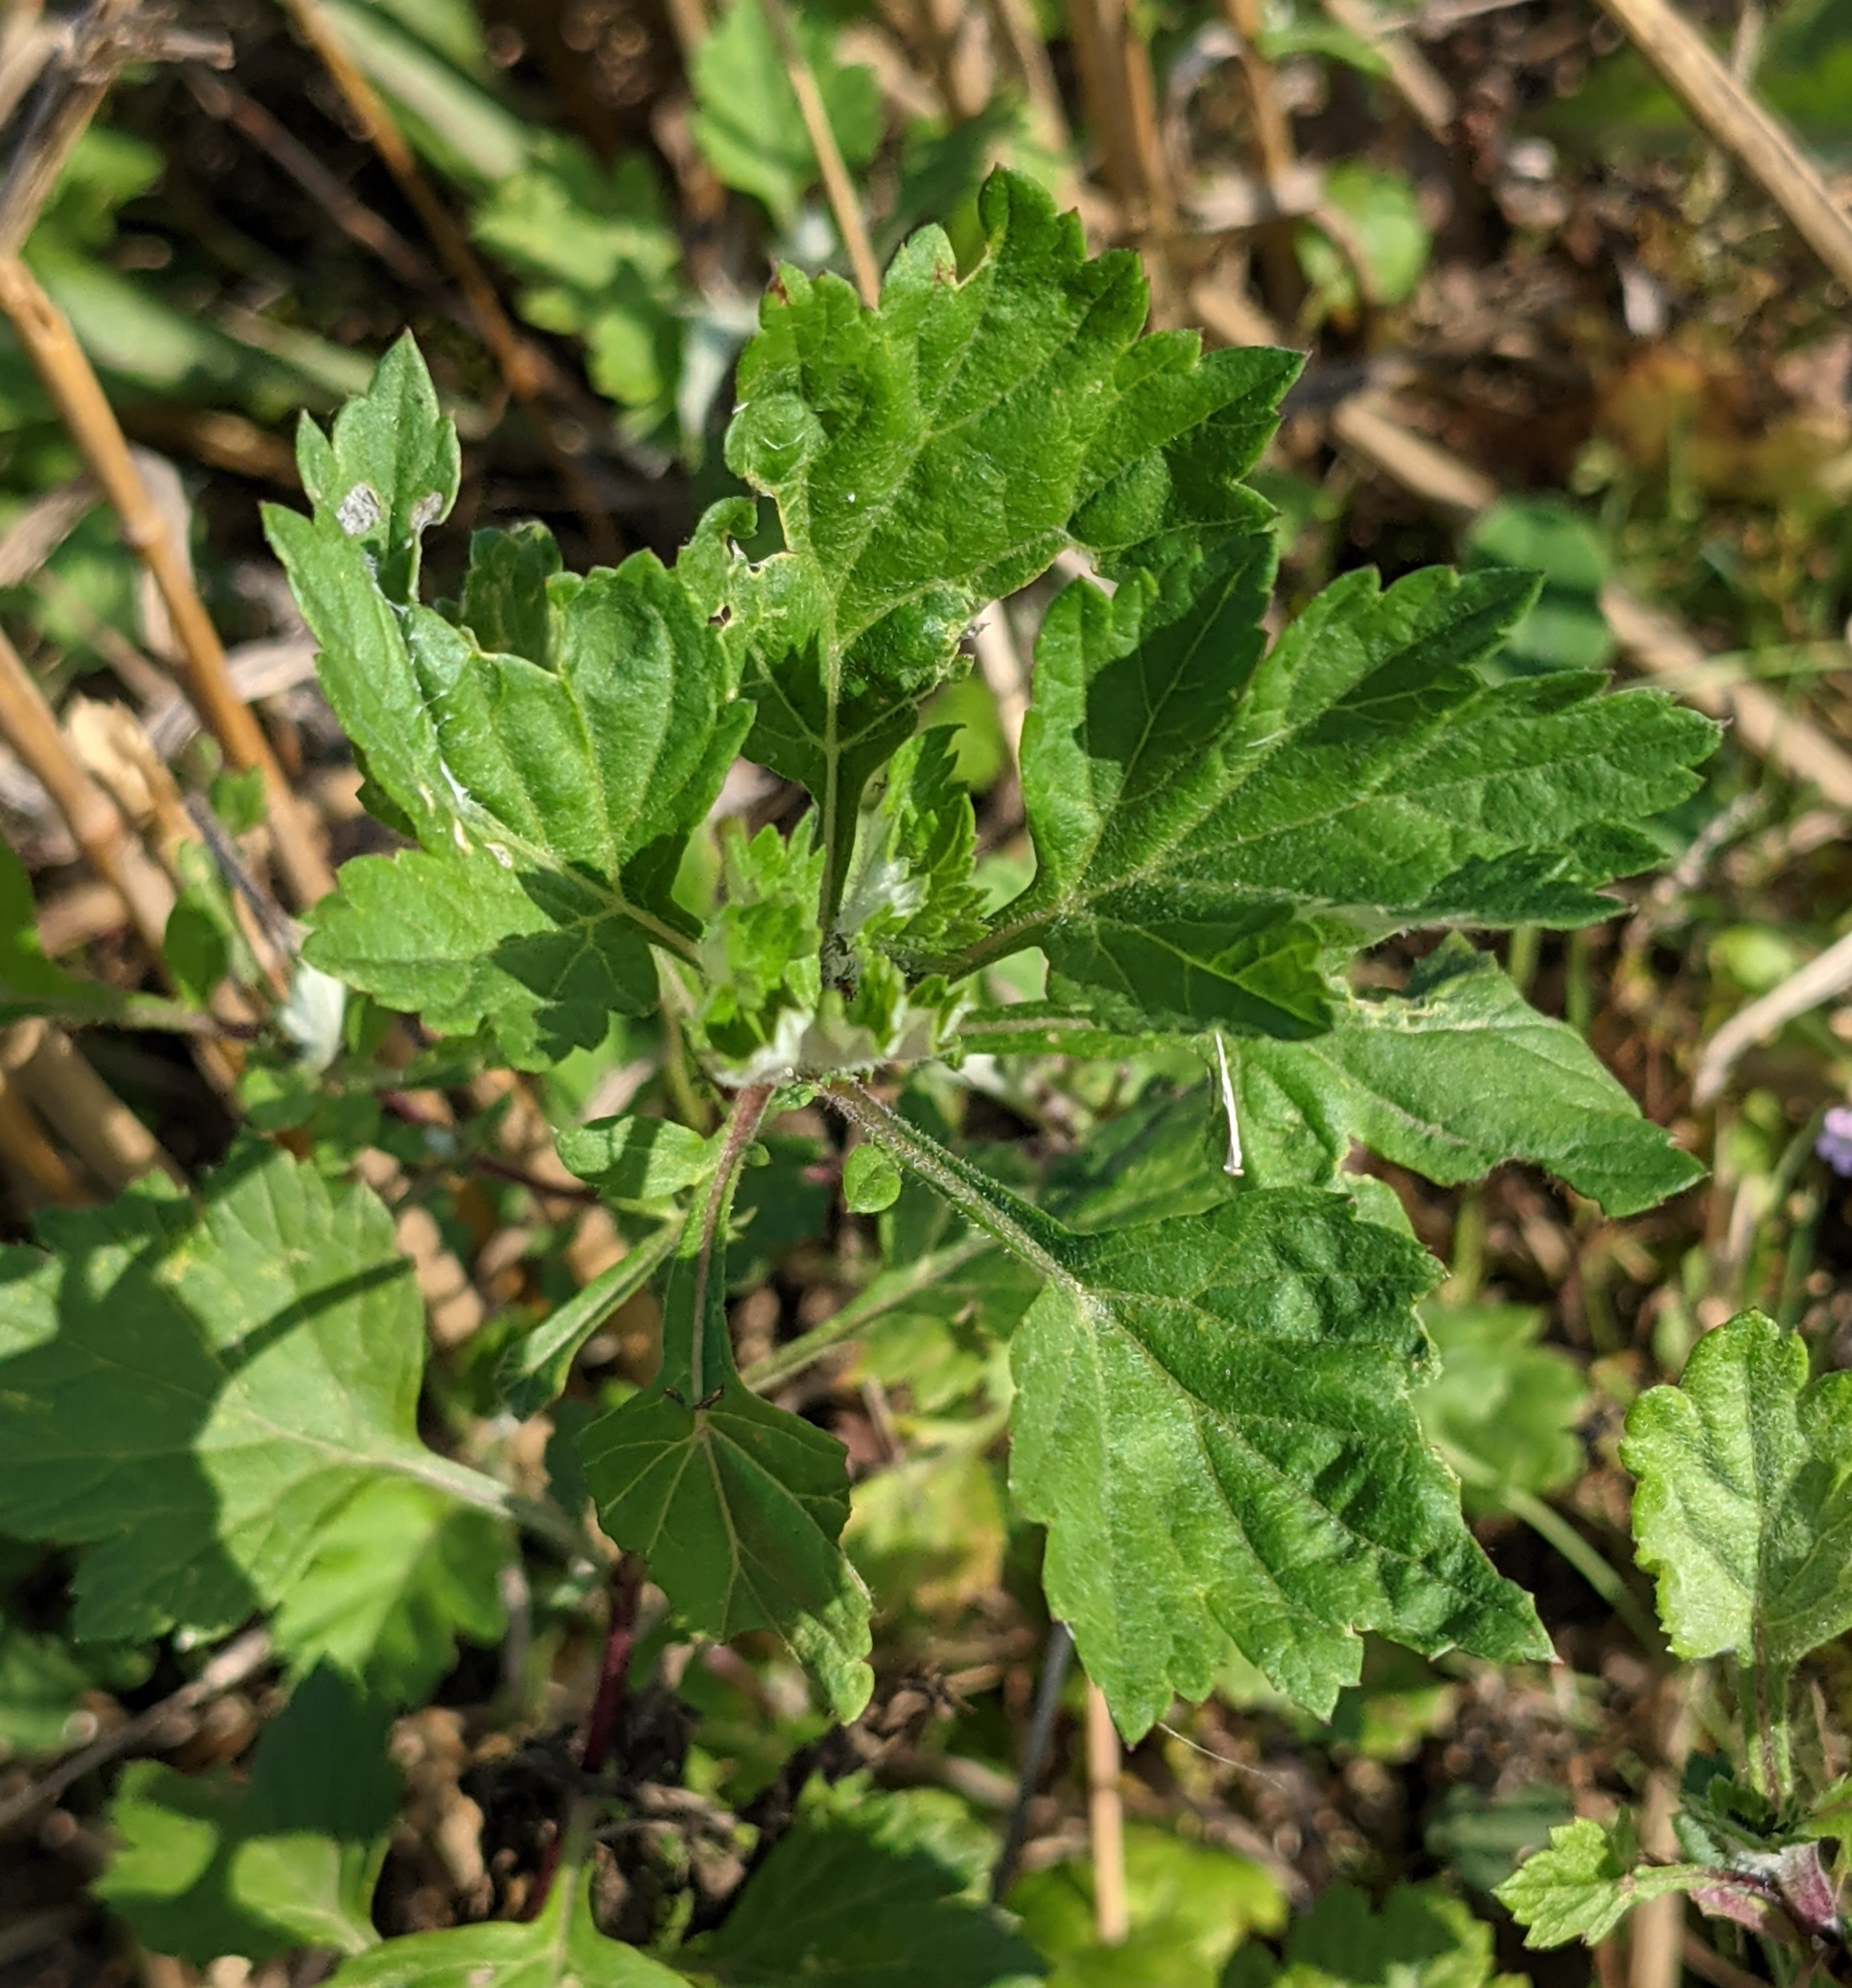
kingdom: Plantae
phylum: Tracheophyta
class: Magnoliopsida
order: Asterales
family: Asteraceae
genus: Artemisia
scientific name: Artemisia vulgaris
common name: Mugwort
